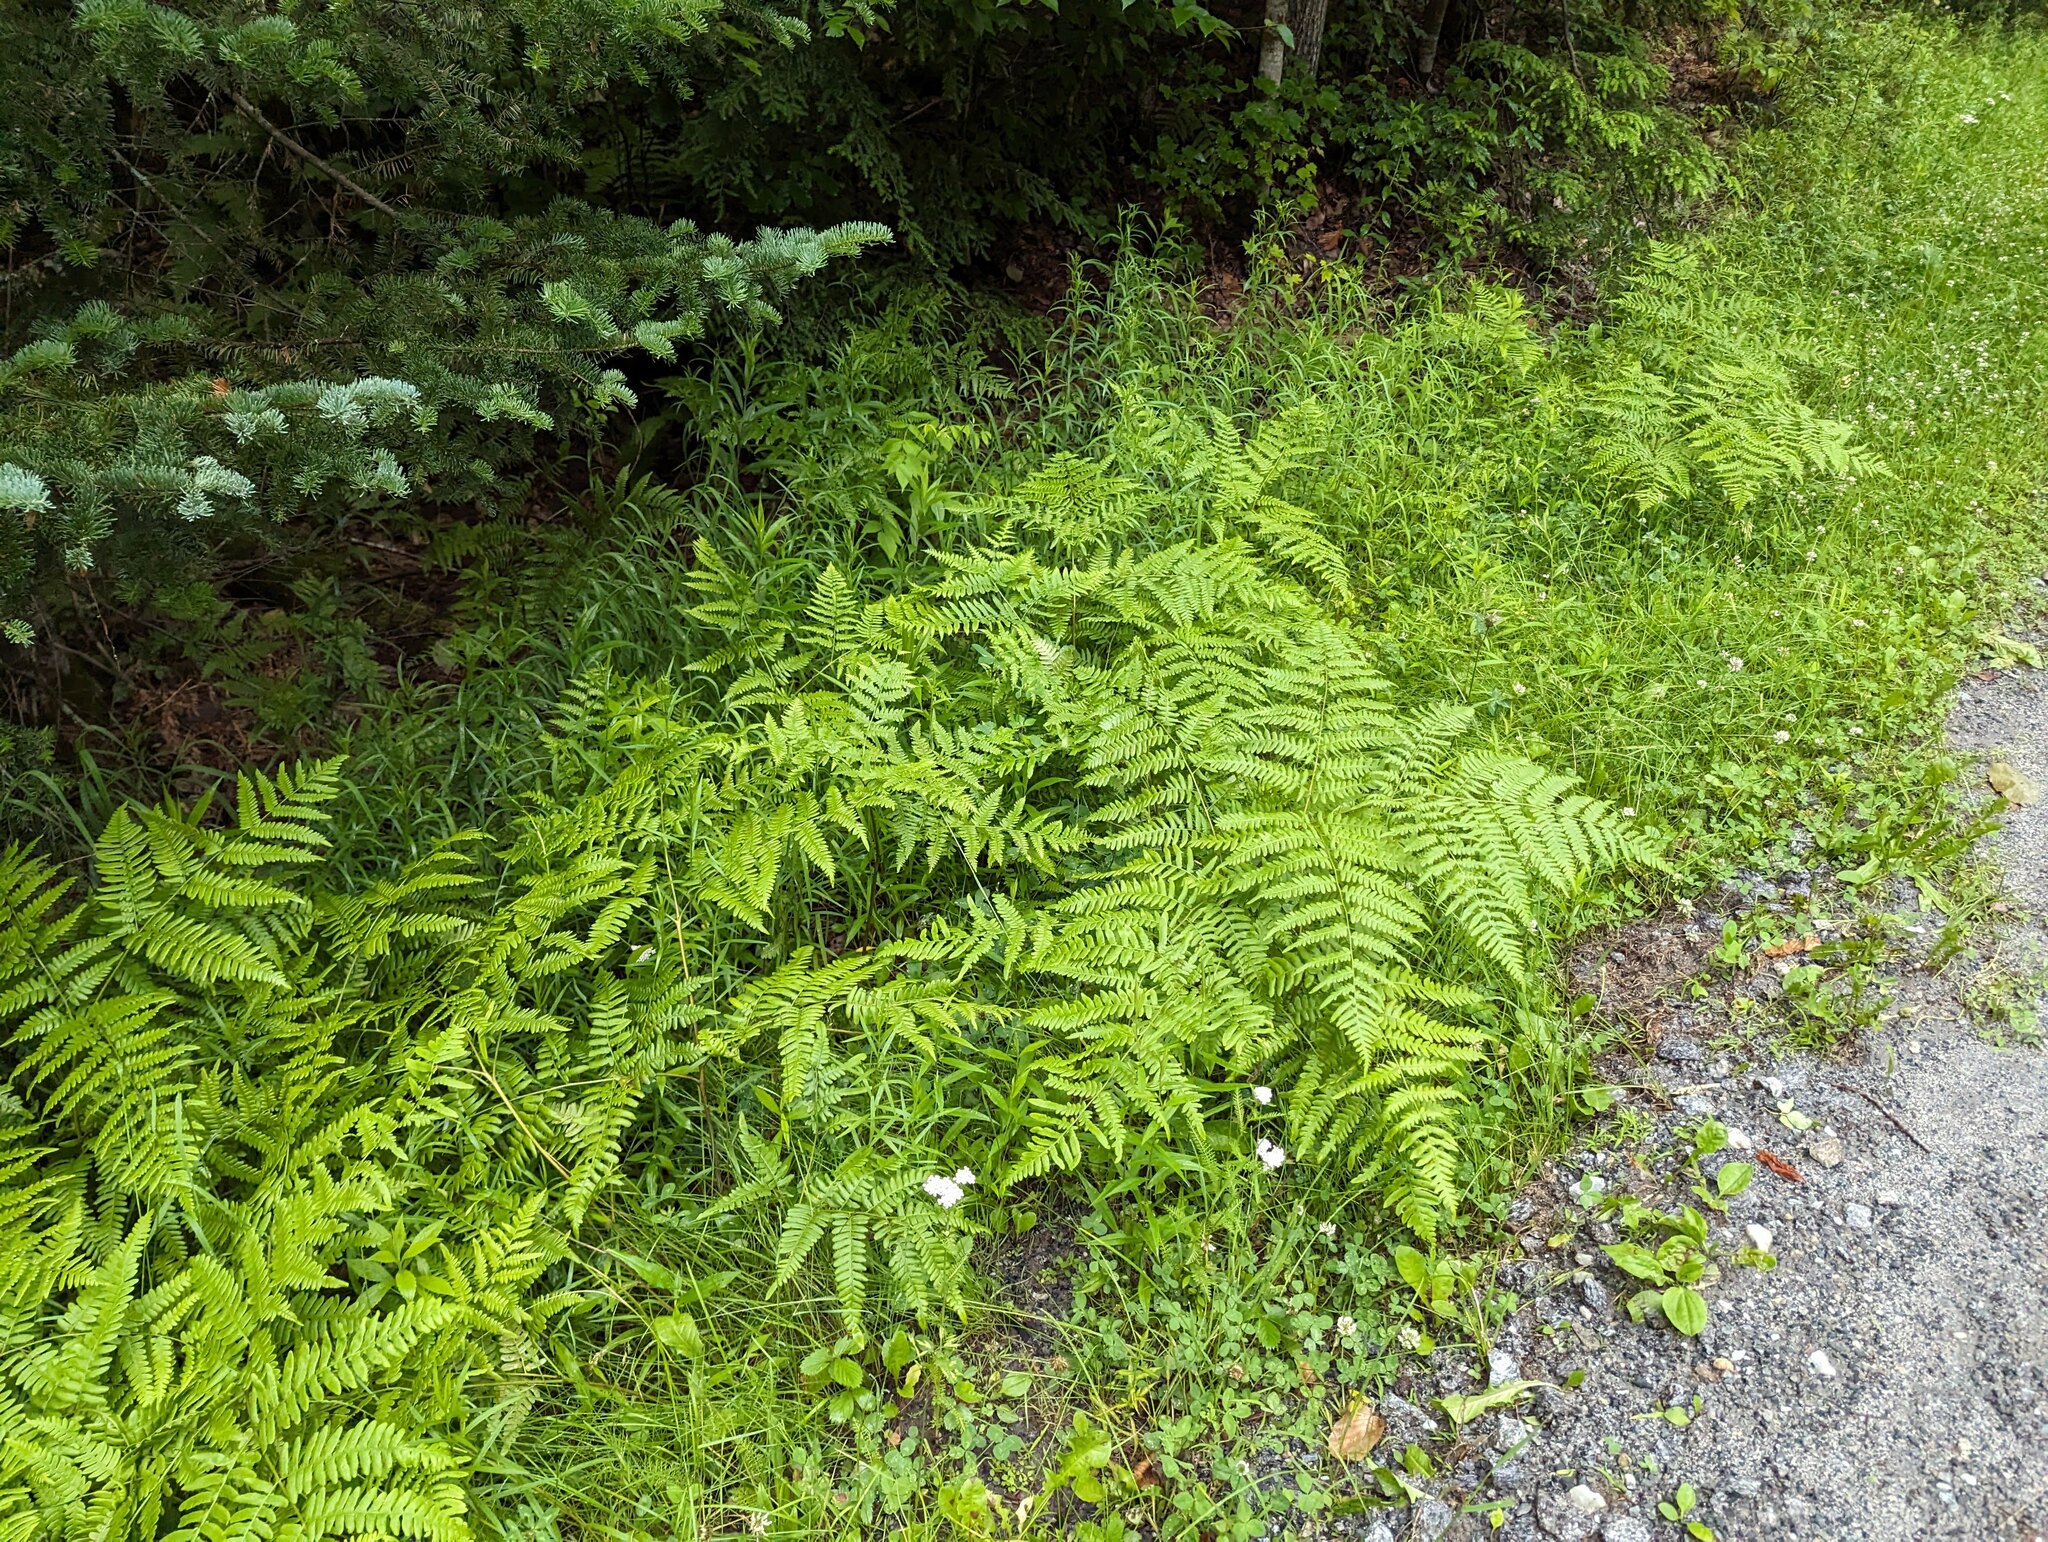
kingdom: Plantae
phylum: Tracheophyta
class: Polypodiopsida
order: Polypodiales
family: Dennstaedtiaceae
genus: Pteridium
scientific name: Pteridium aquilinum
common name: Bracken
